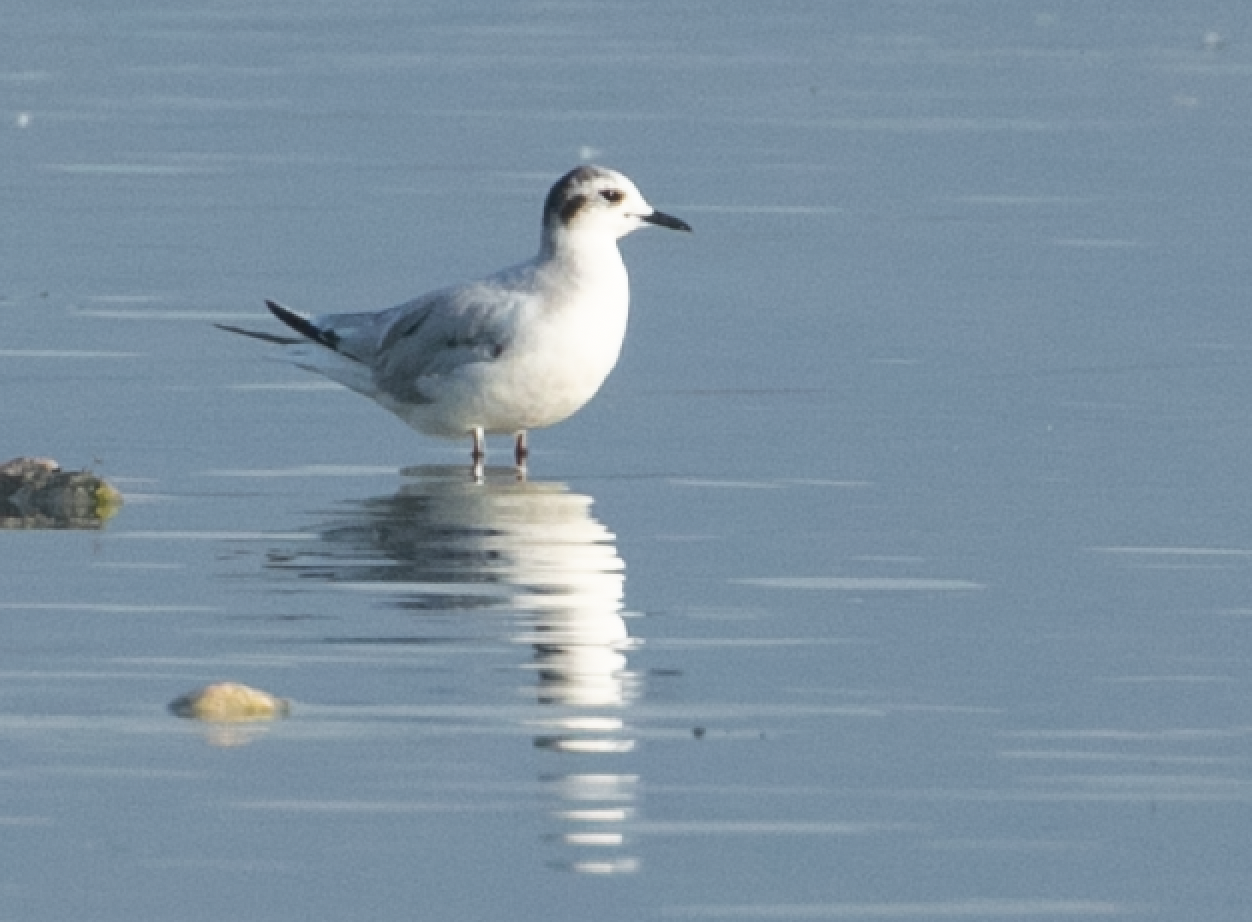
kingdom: Animalia
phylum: Chordata
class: Aves
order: Charadriiformes
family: Laridae
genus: Hydrocoloeus
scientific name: Hydrocoloeus minutus
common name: Little gull
